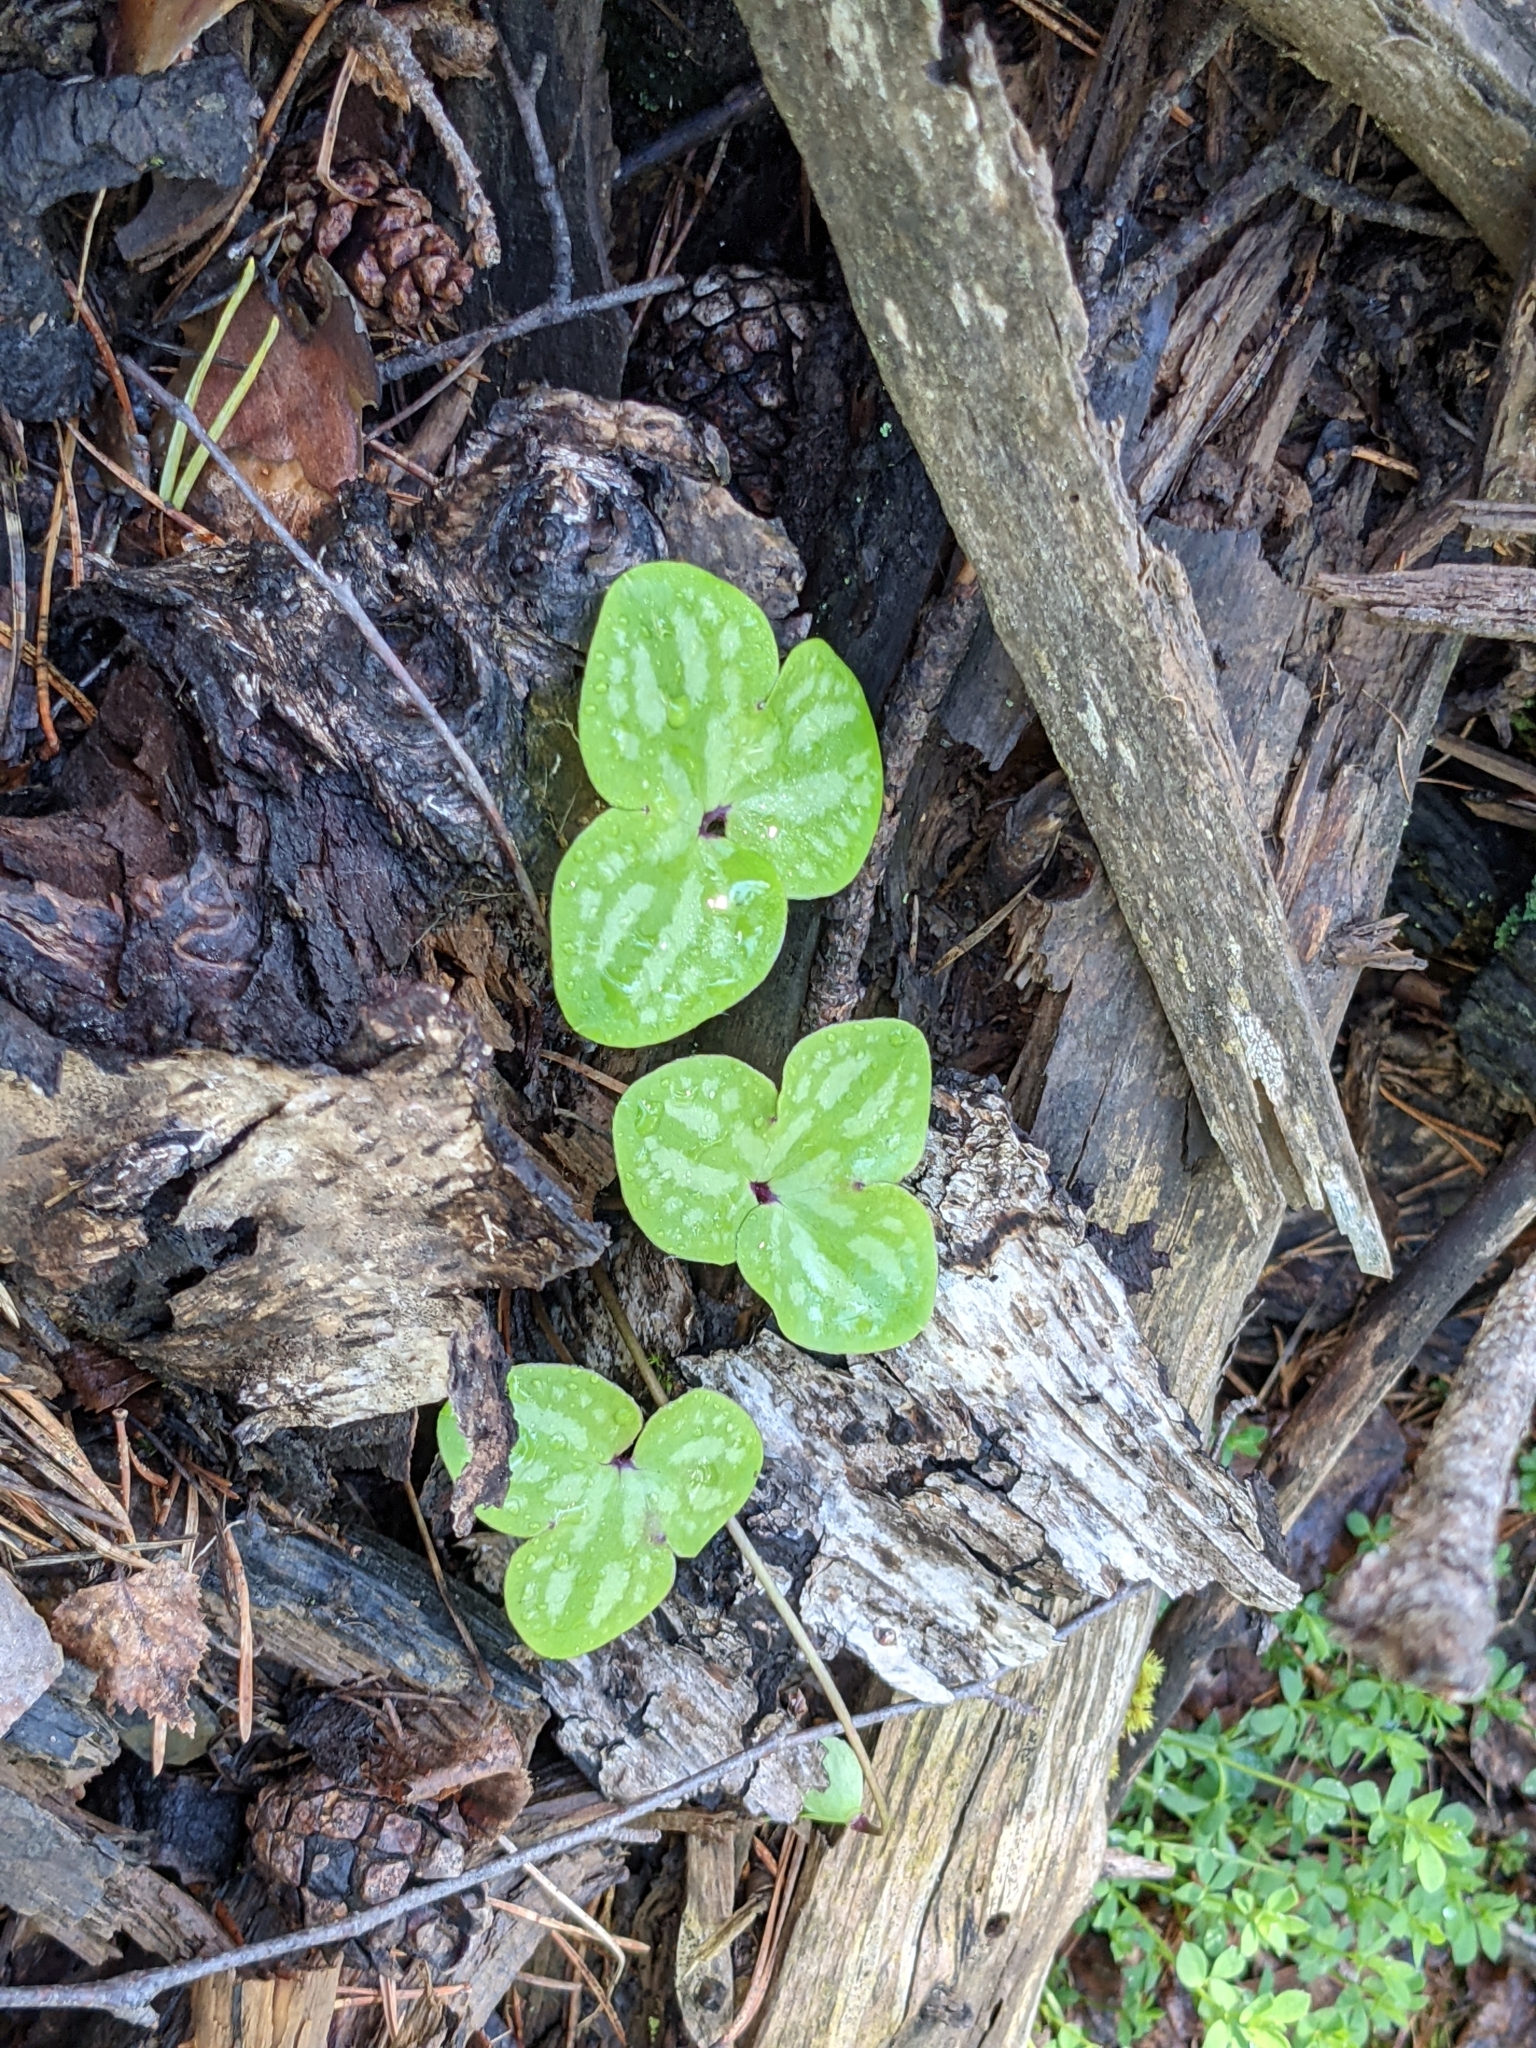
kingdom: Plantae
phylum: Tracheophyta
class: Magnoliopsida
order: Ranunculales
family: Ranunculaceae
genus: Hepatica
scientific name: Hepatica nobilis
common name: Liverleaf
